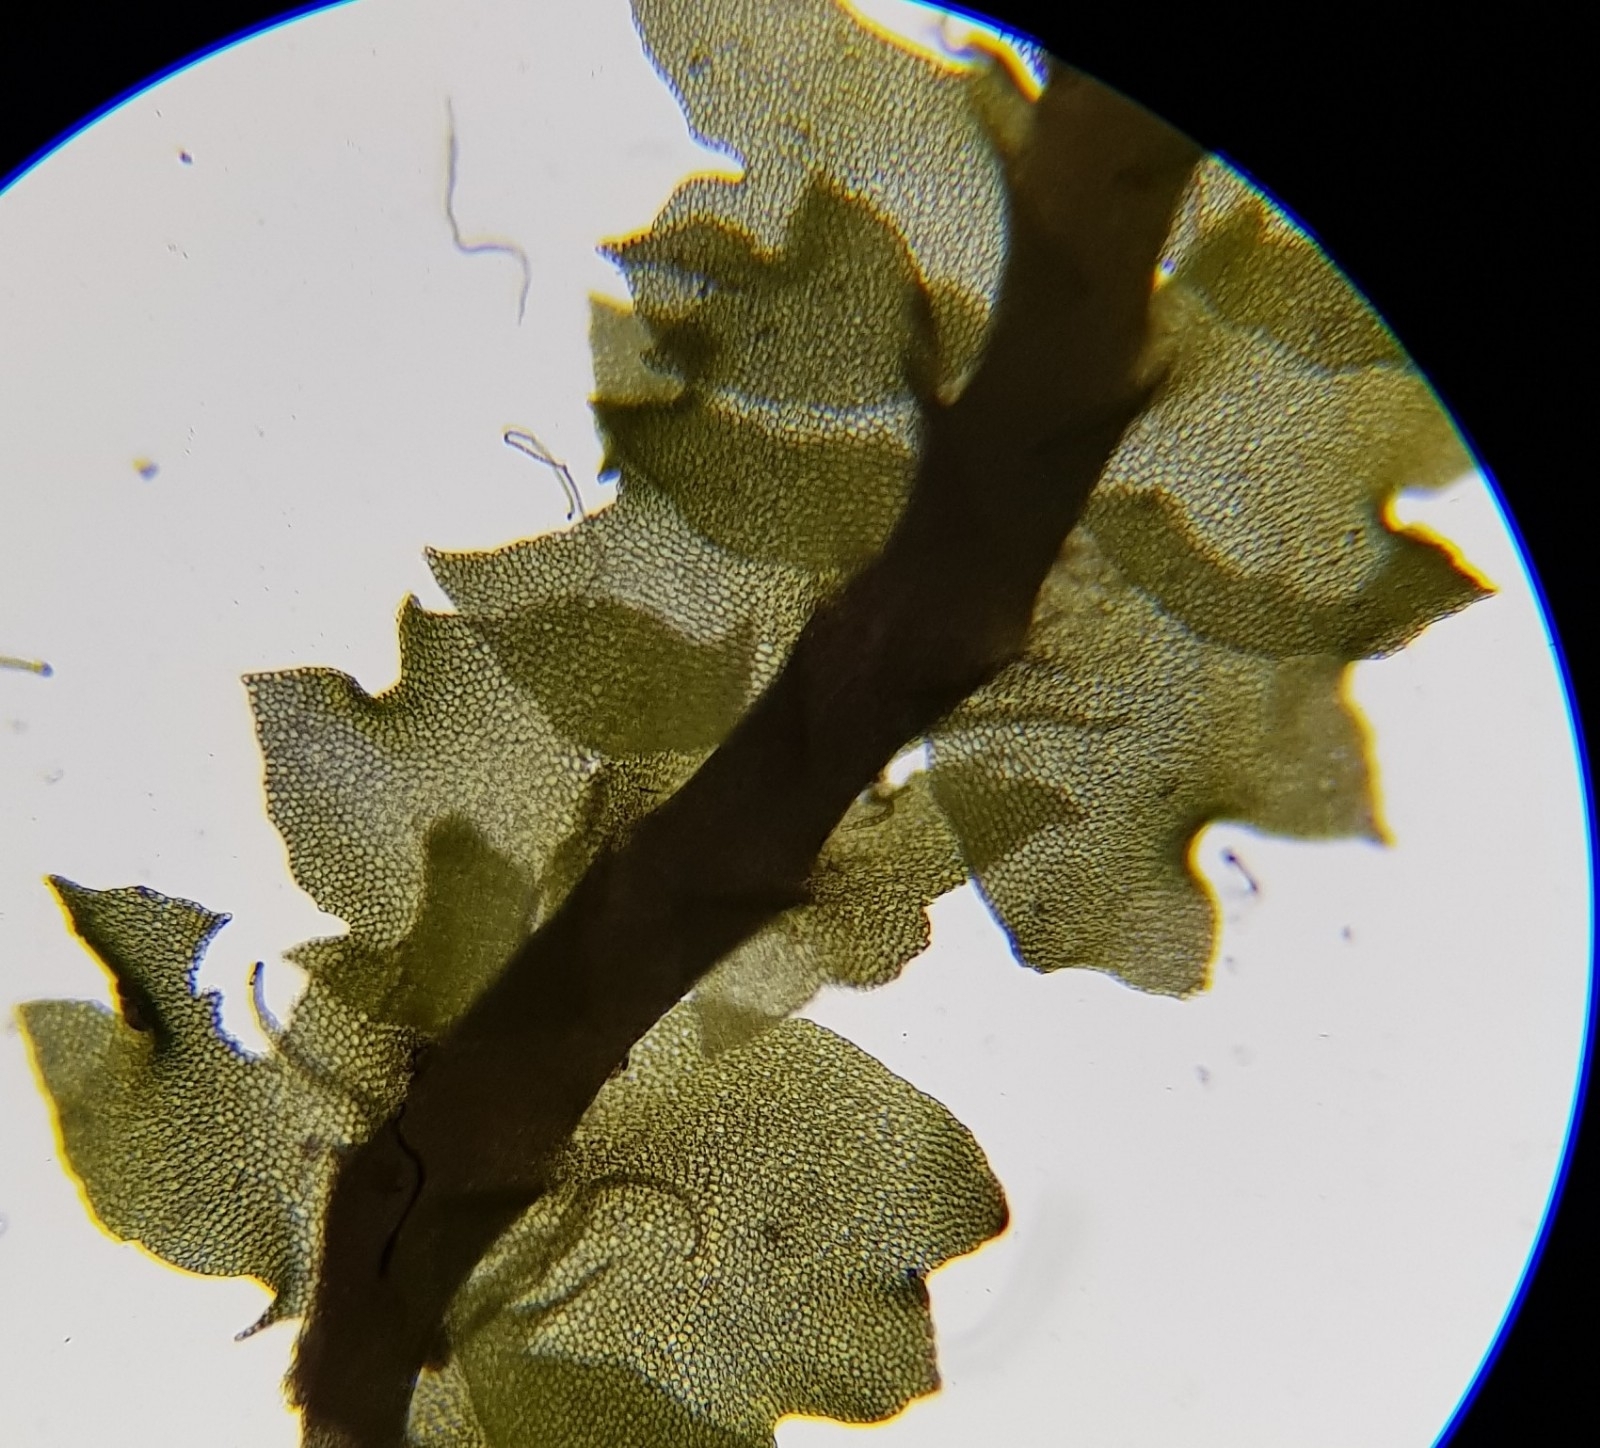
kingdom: Plantae
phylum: Marchantiophyta
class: Jungermanniopsida
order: Jungermanniales
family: Anastrophyllaceae
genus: Neoorthocaulis
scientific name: Neoorthocaulis floerkei
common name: Floerke's barbilophozia
